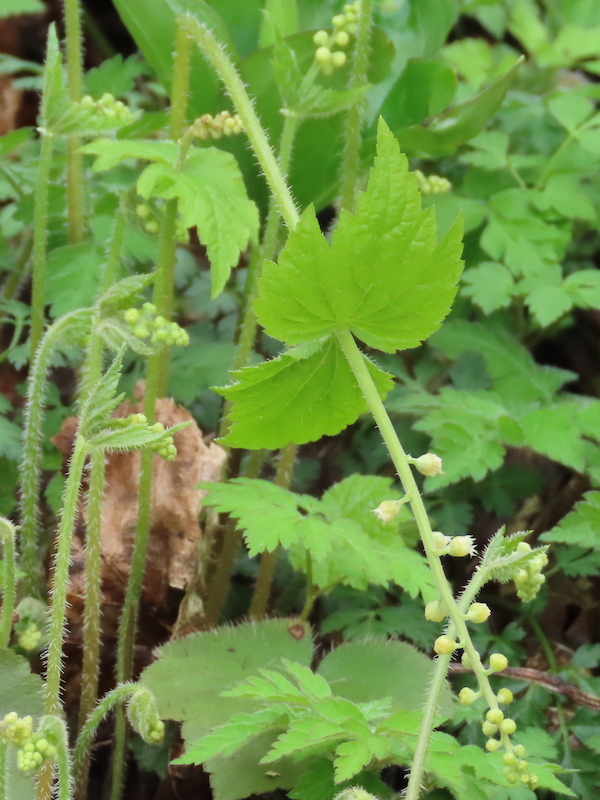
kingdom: Plantae
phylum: Tracheophyta
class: Magnoliopsida
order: Saxifragales
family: Saxifragaceae
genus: Mitella
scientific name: Mitella diphylla
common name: Coolwort
